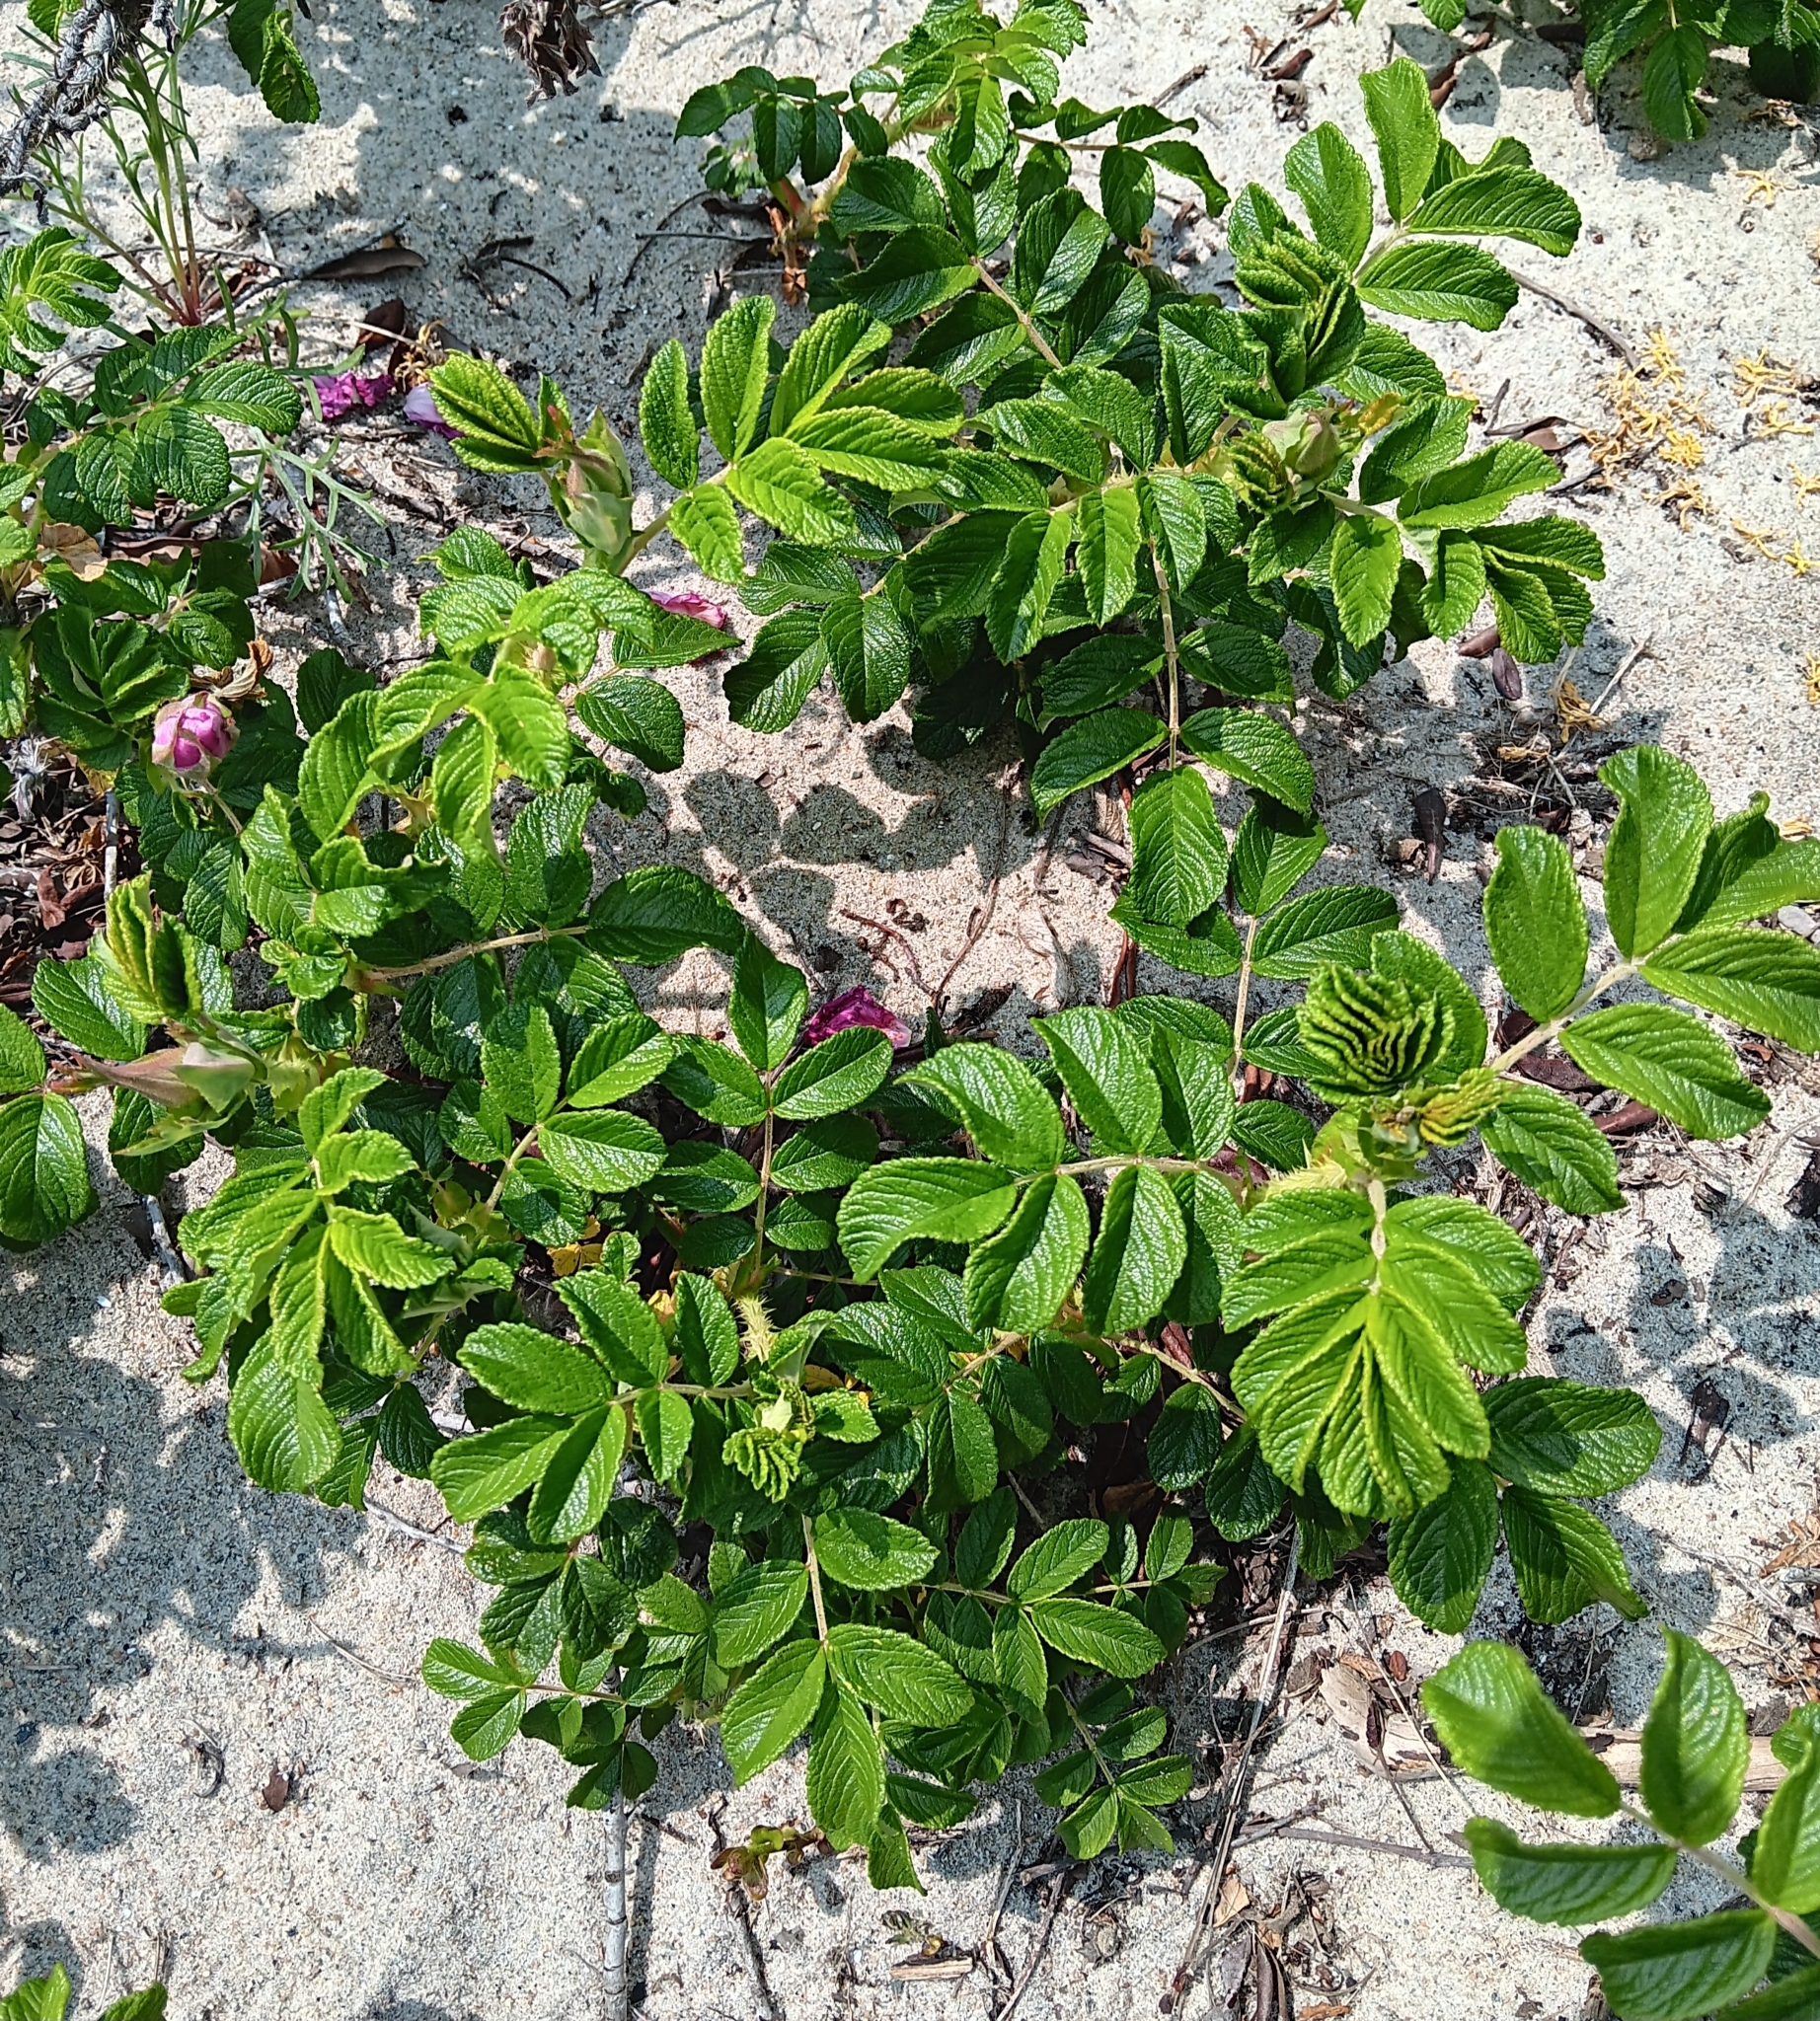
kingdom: Plantae
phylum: Tracheophyta
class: Magnoliopsida
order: Rosales
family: Rosaceae
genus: Rosa
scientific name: Rosa rugosa
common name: Japanese rose
